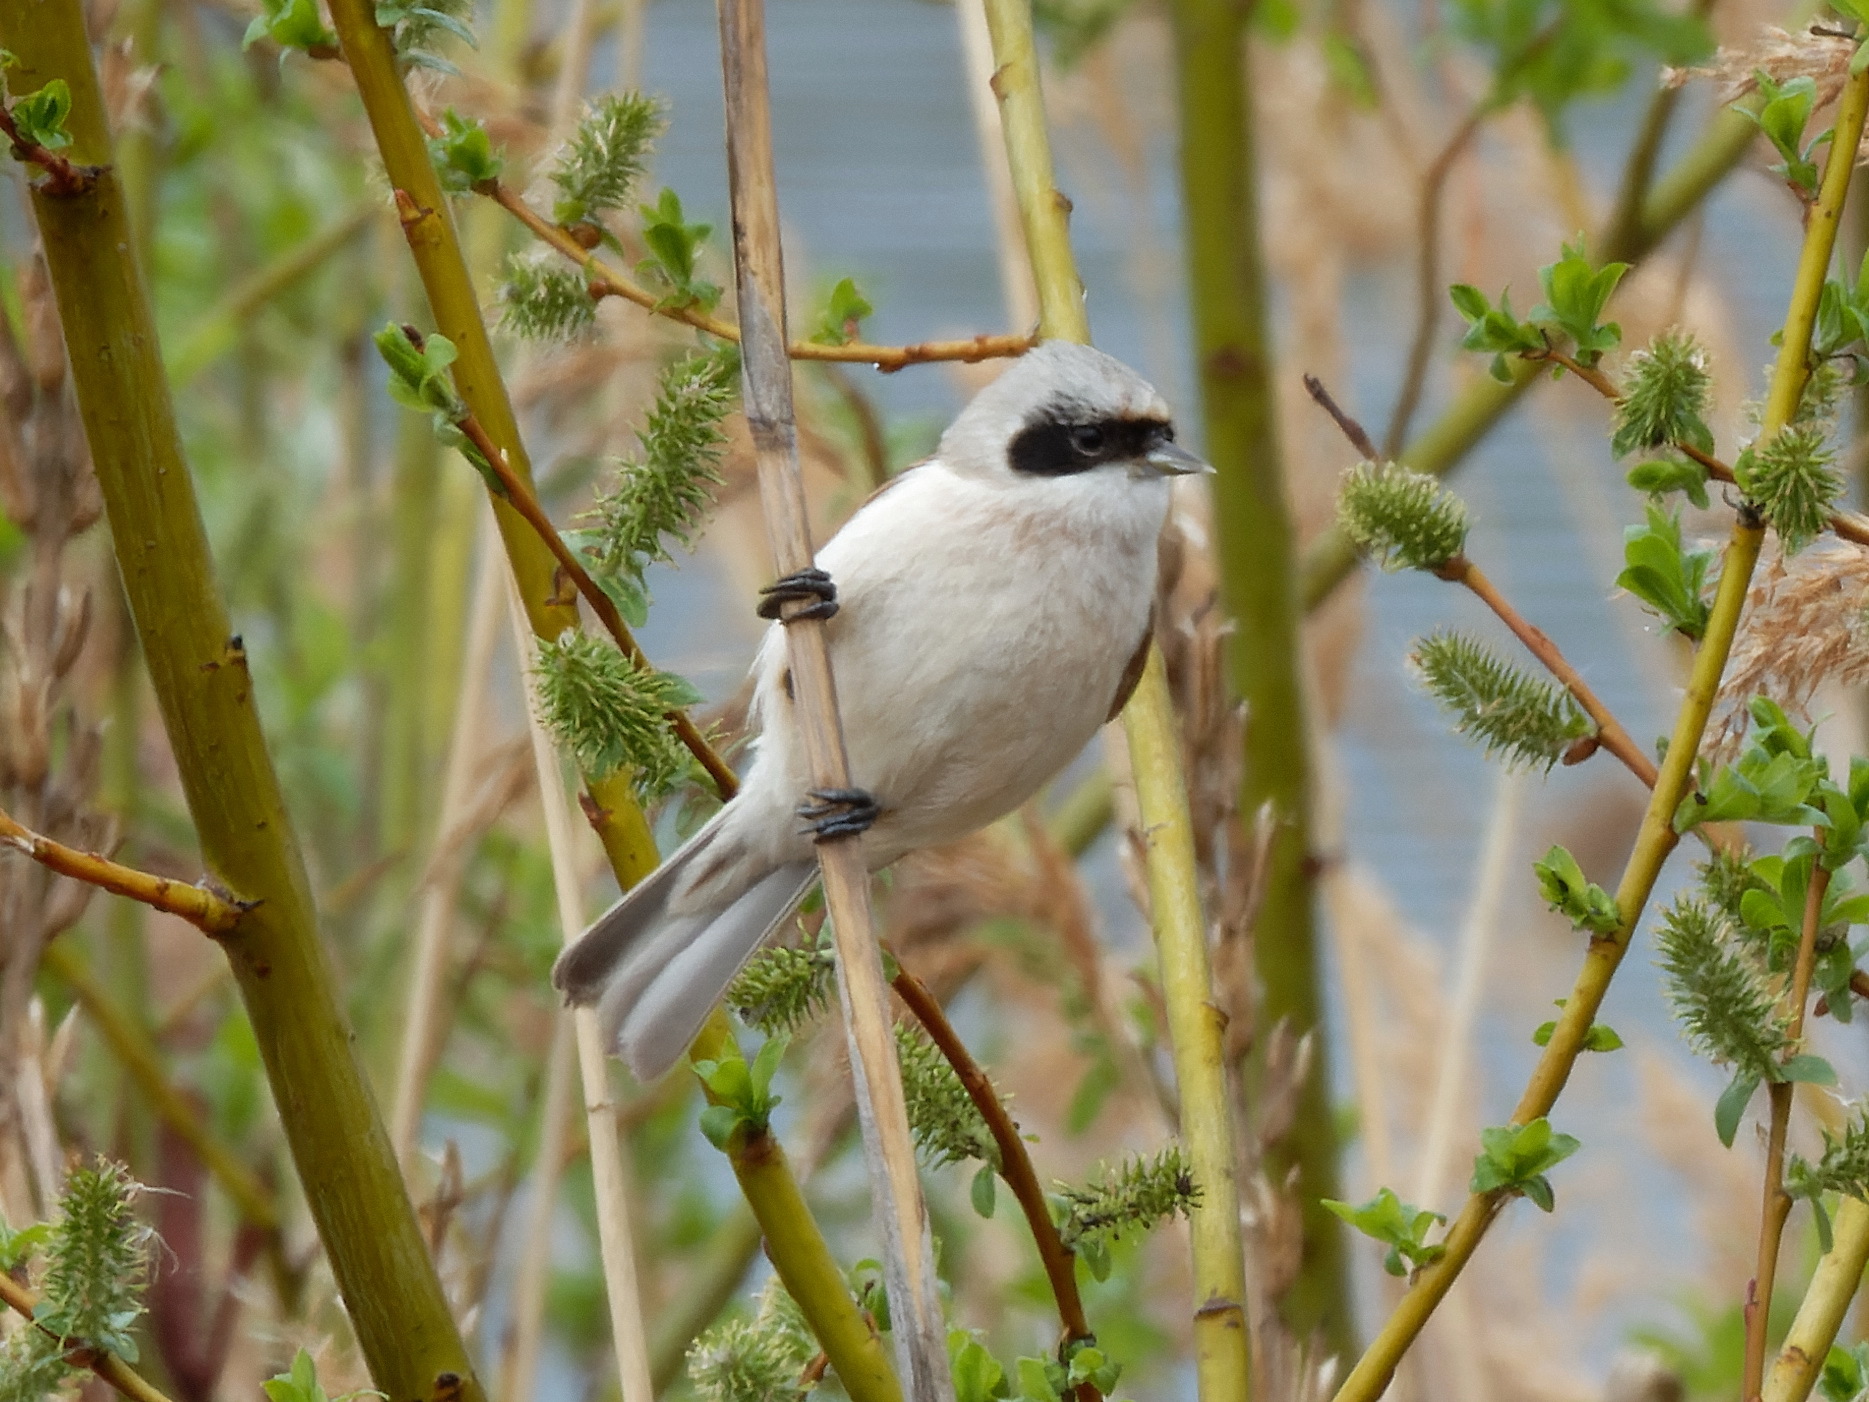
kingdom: Animalia
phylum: Chordata
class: Aves
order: Passeriformes
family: Remizidae
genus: Remiz
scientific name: Remiz pendulinus
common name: Eurasian penduline tit
